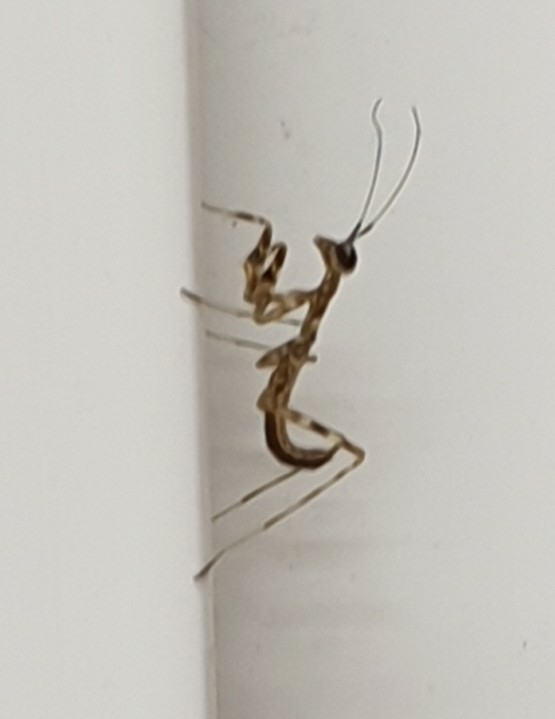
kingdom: Animalia
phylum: Arthropoda
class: Insecta
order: Mantodea
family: Miomantidae
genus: Miomantis
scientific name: Miomantis paykullii
